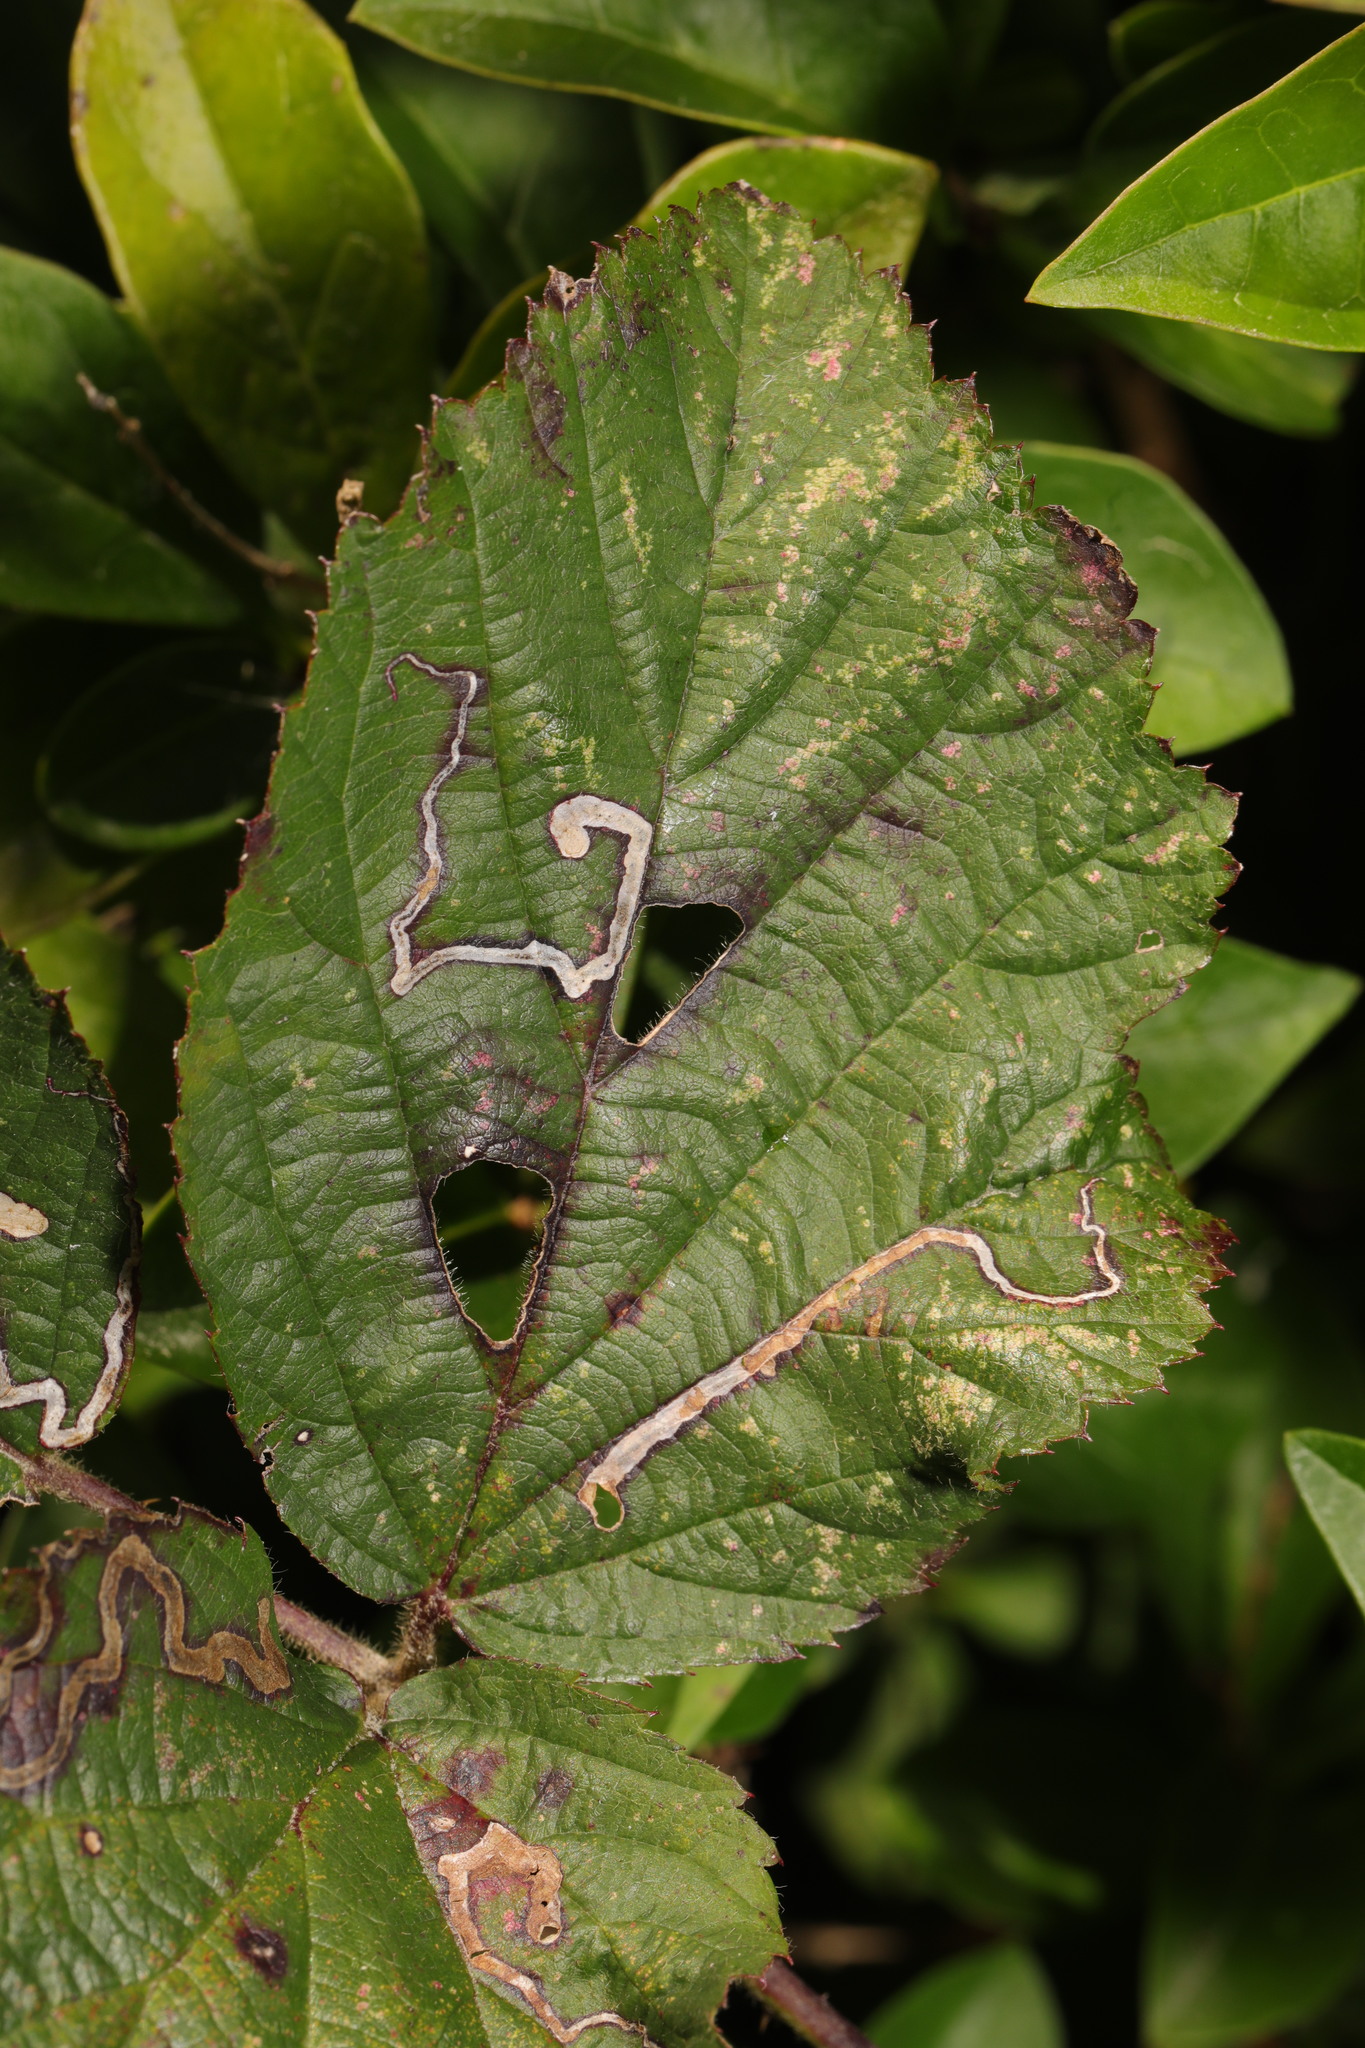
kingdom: Animalia
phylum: Arthropoda
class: Insecta
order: Lepidoptera
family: Nepticulidae
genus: Stigmella
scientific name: Stigmella aurella
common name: Golden pigmy
